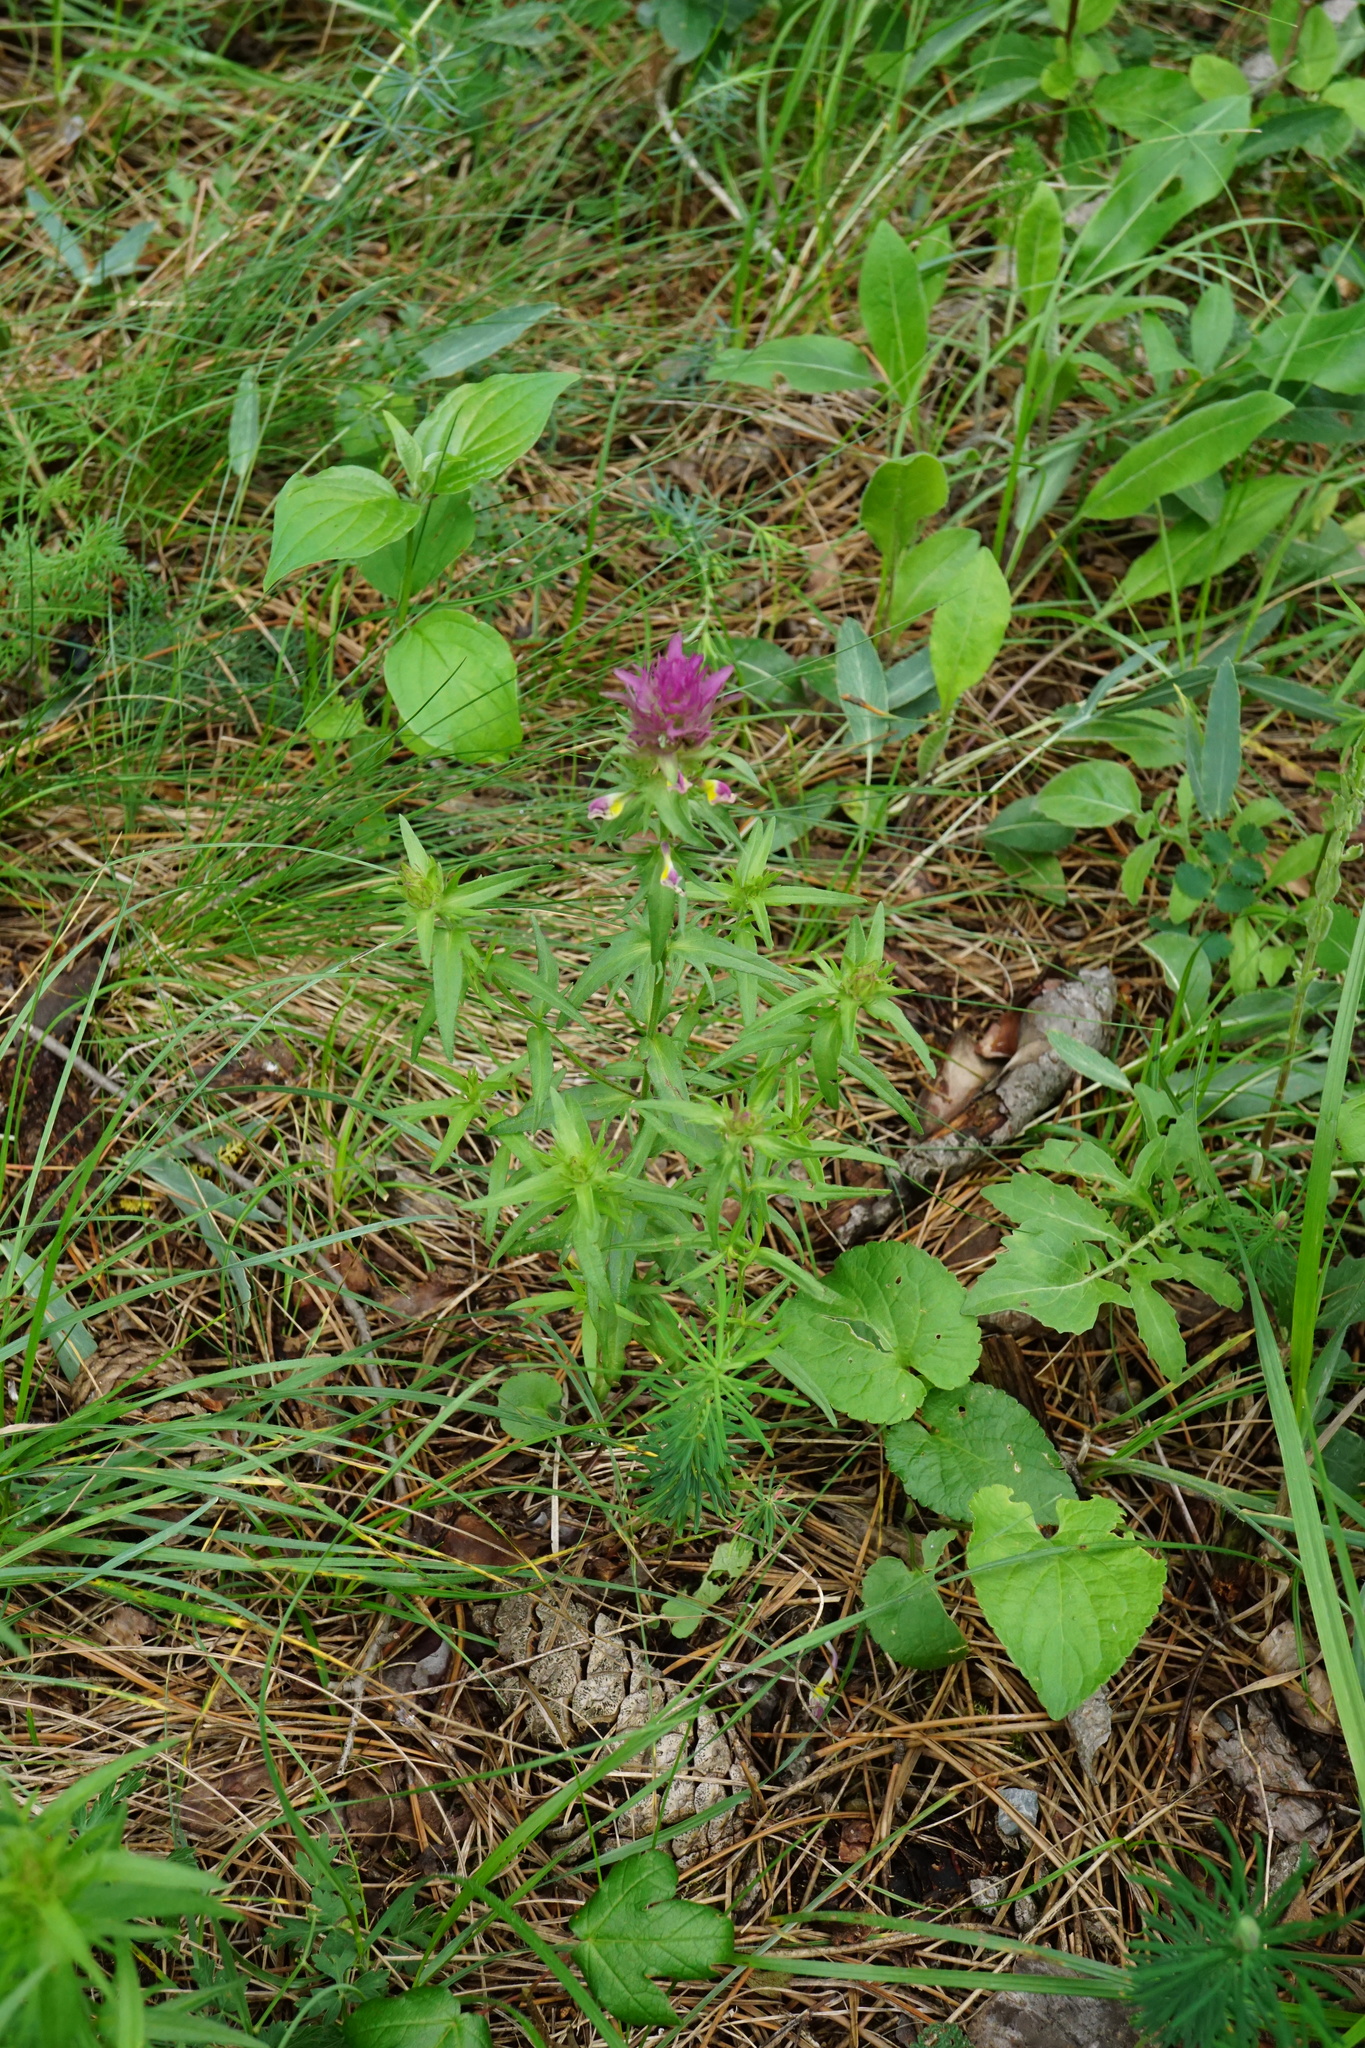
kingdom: Plantae
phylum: Tracheophyta
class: Magnoliopsida
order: Lamiales
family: Orobanchaceae
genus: Melampyrum
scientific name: Melampyrum arvense
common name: Field cow-wheat
